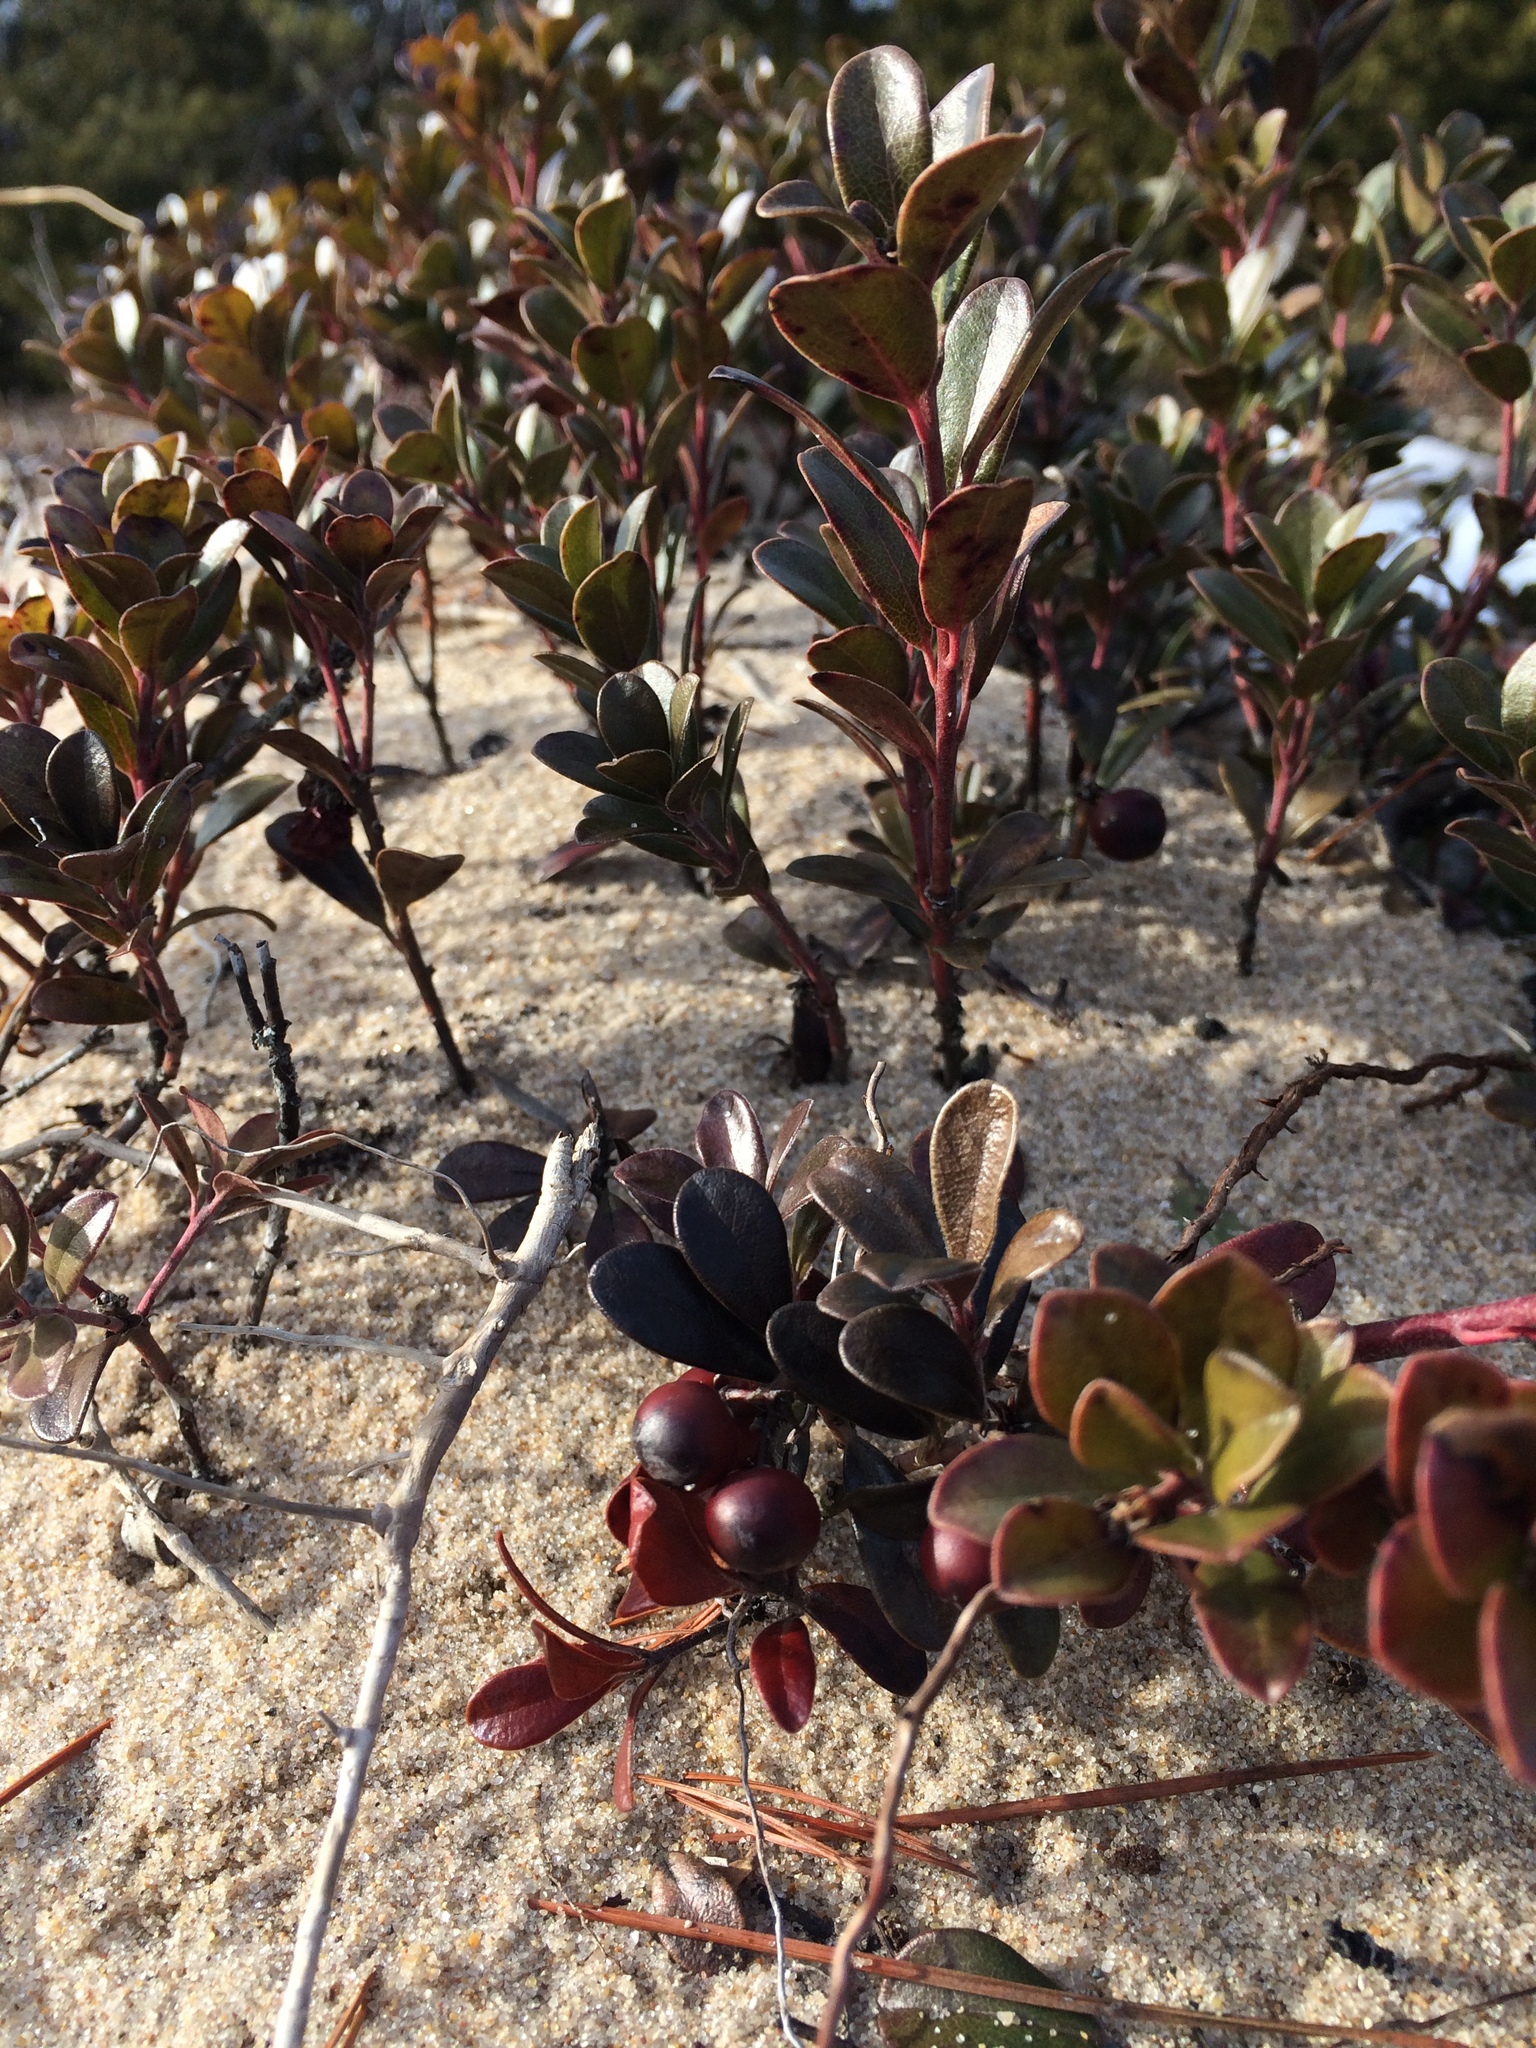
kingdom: Plantae
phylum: Tracheophyta
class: Magnoliopsida
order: Ericales
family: Ericaceae
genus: Arctostaphylos
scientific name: Arctostaphylos uva-ursi
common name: Bearberry
